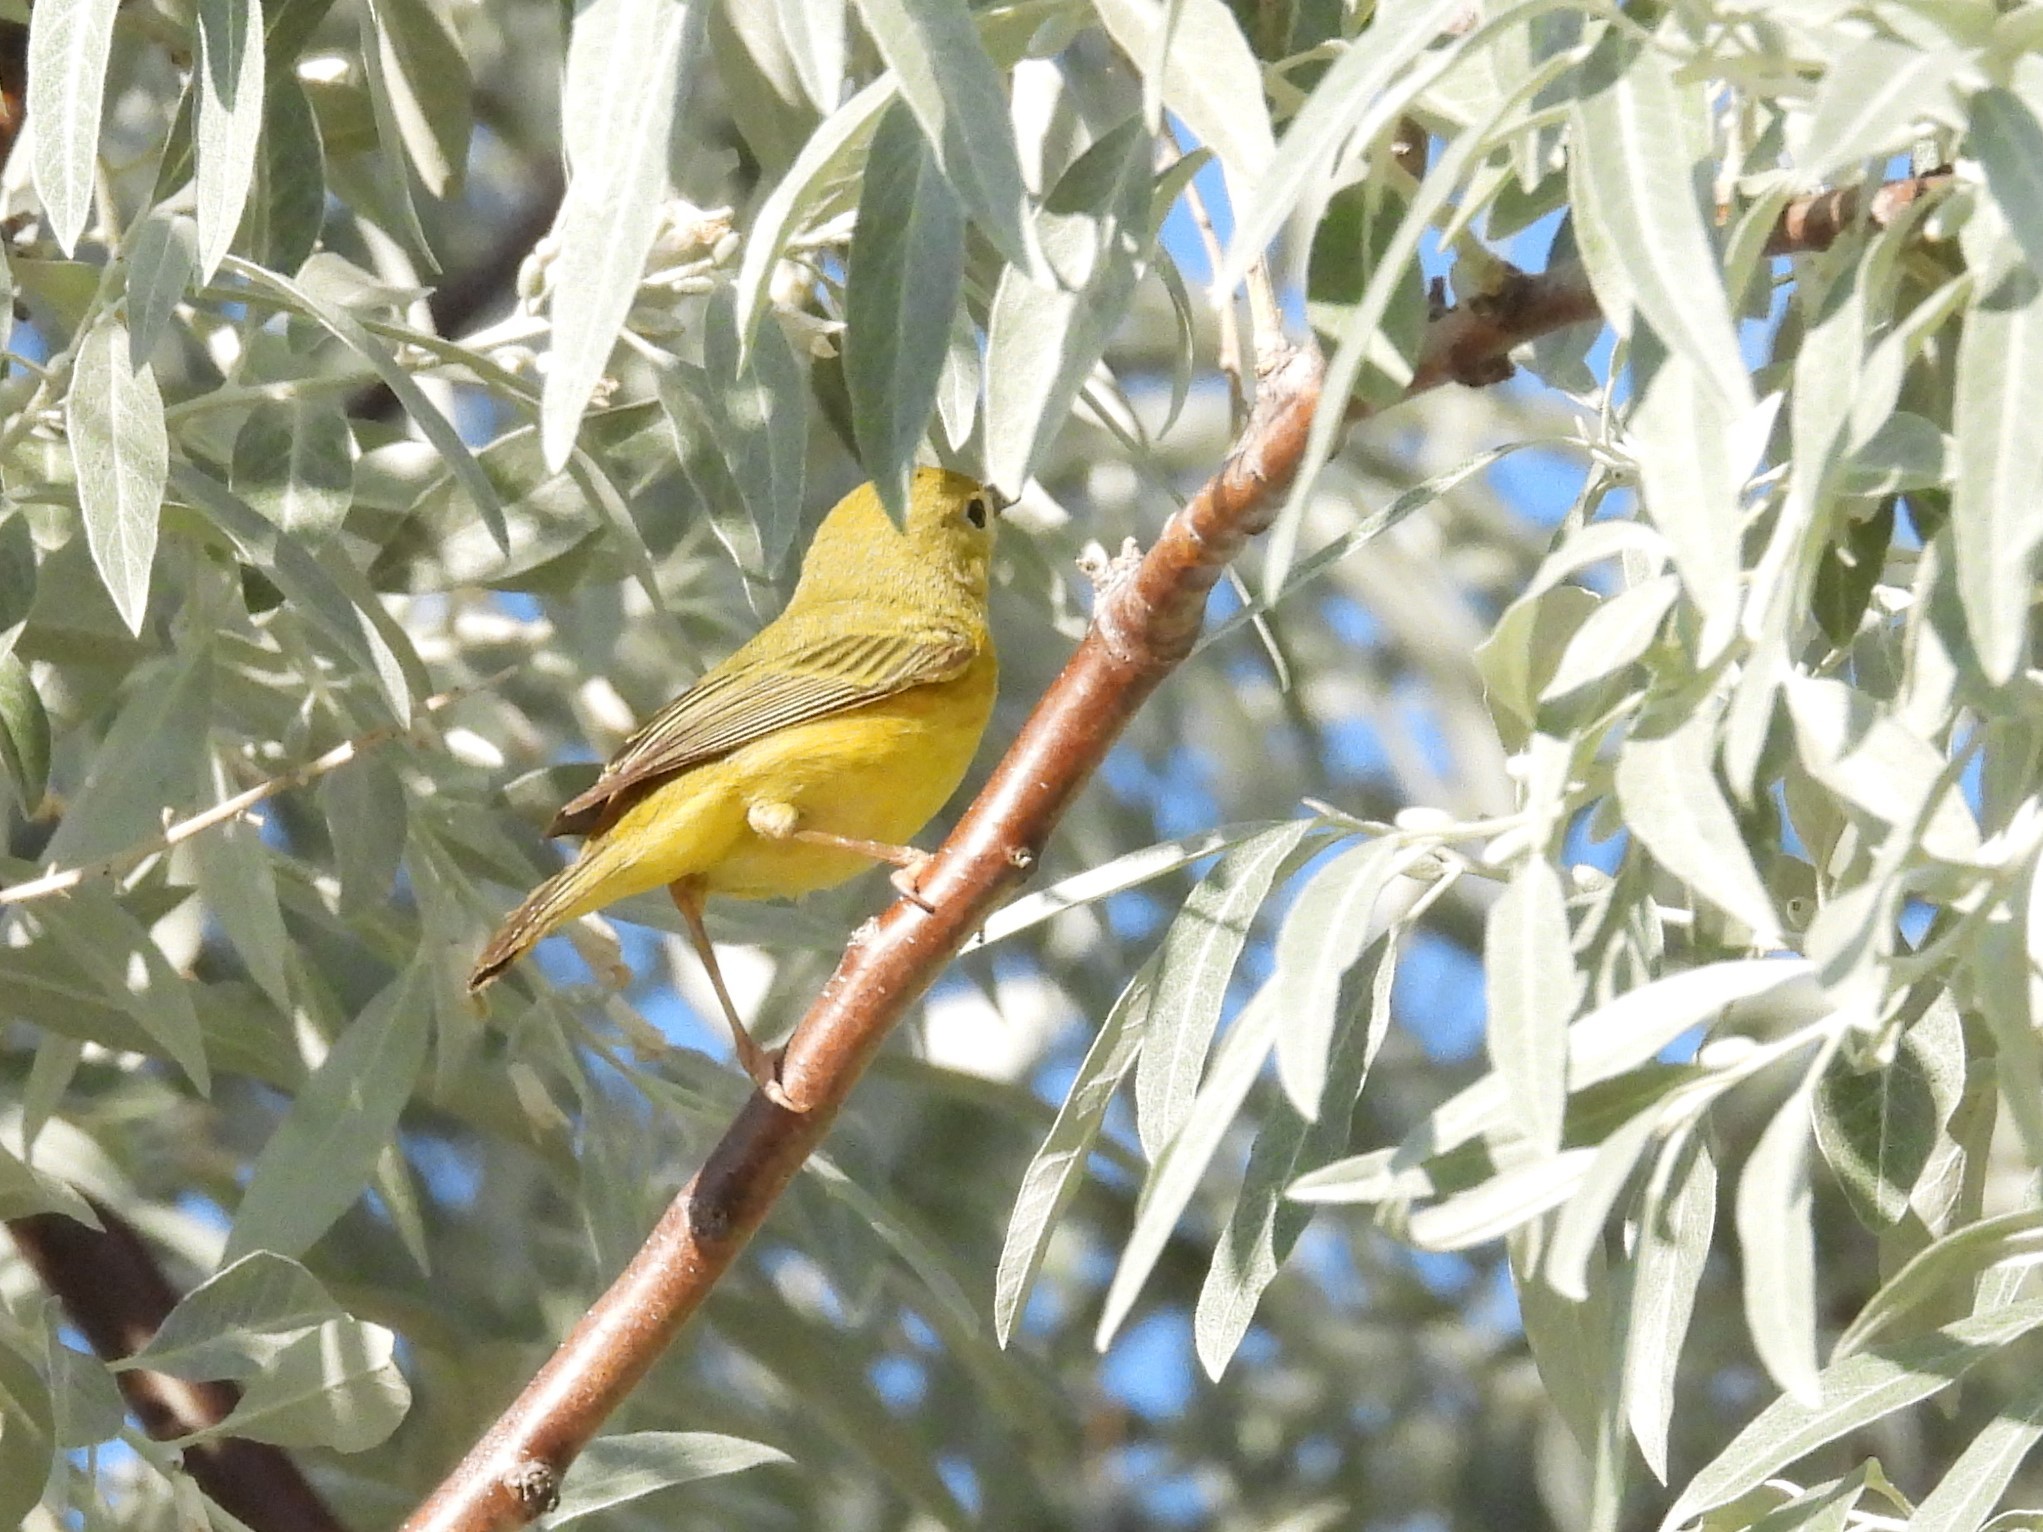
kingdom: Animalia
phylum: Chordata
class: Aves
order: Passeriformes
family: Parulidae
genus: Setophaga
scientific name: Setophaga petechia
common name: Yellow warbler
